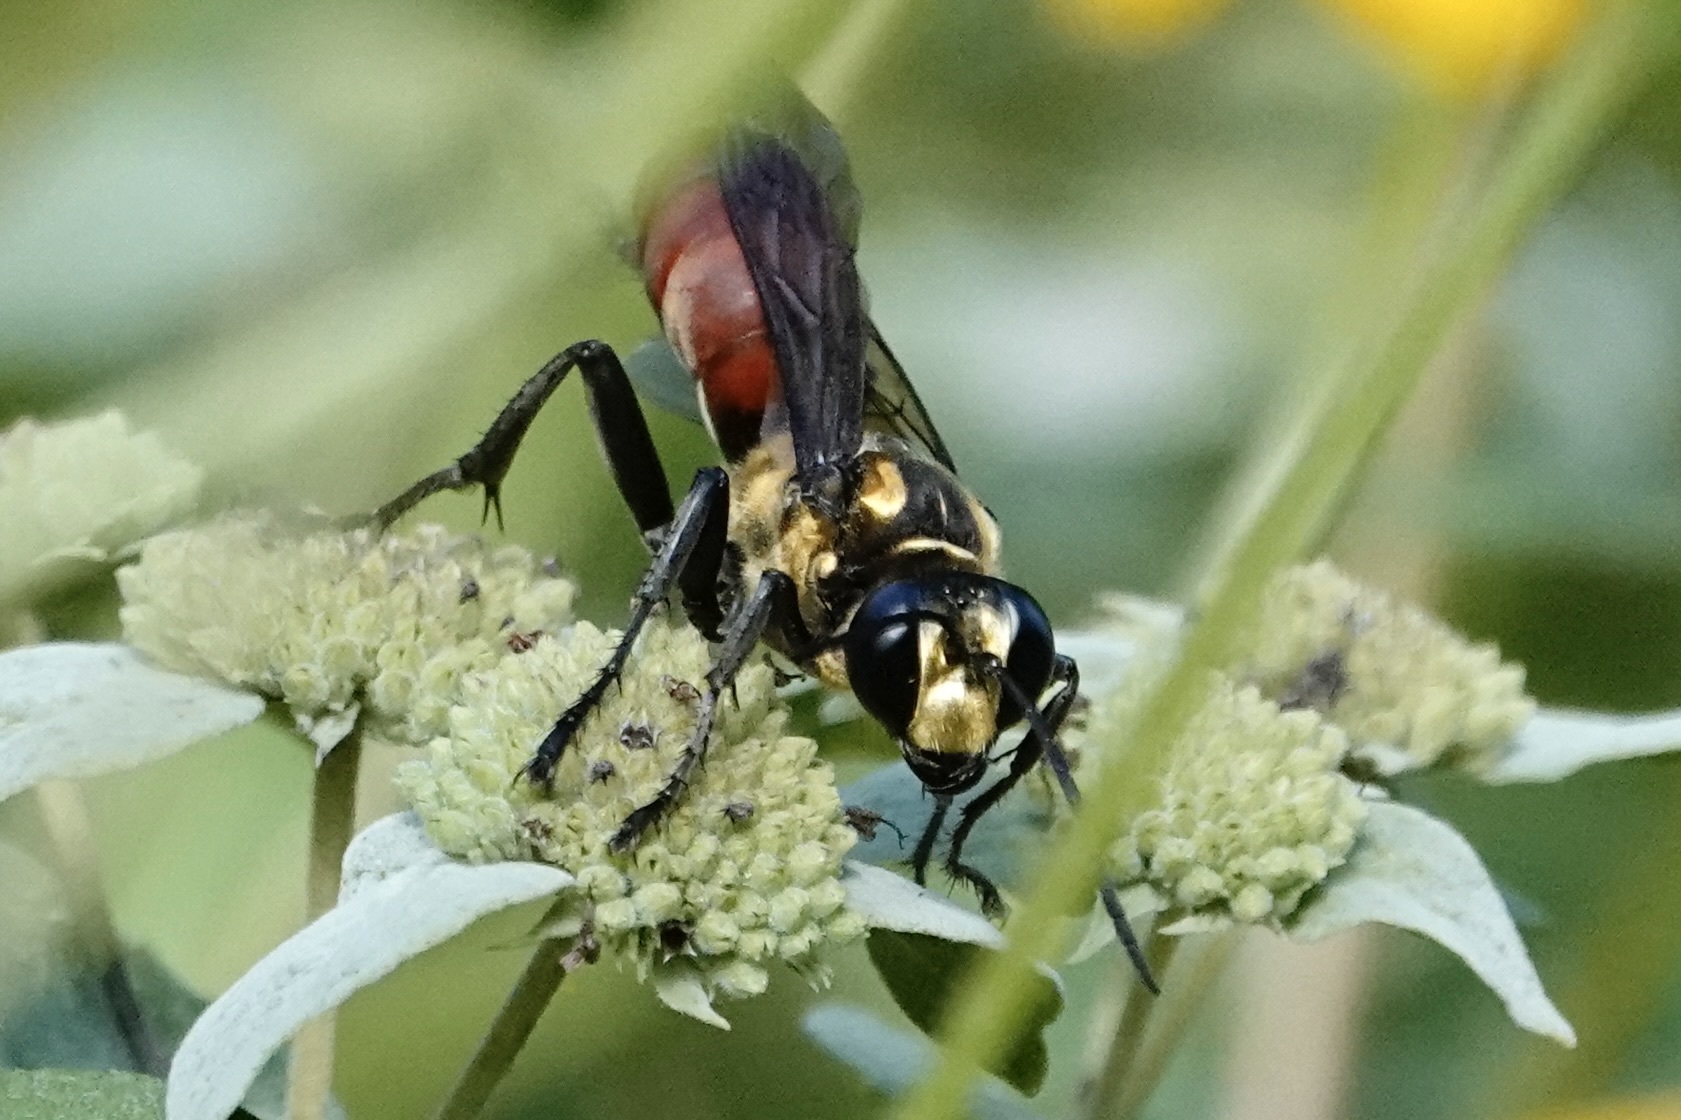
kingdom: Animalia
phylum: Arthropoda
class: Insecta
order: Hymenoptera
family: Sphecidae
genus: Sphex
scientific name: Sphex habenus
